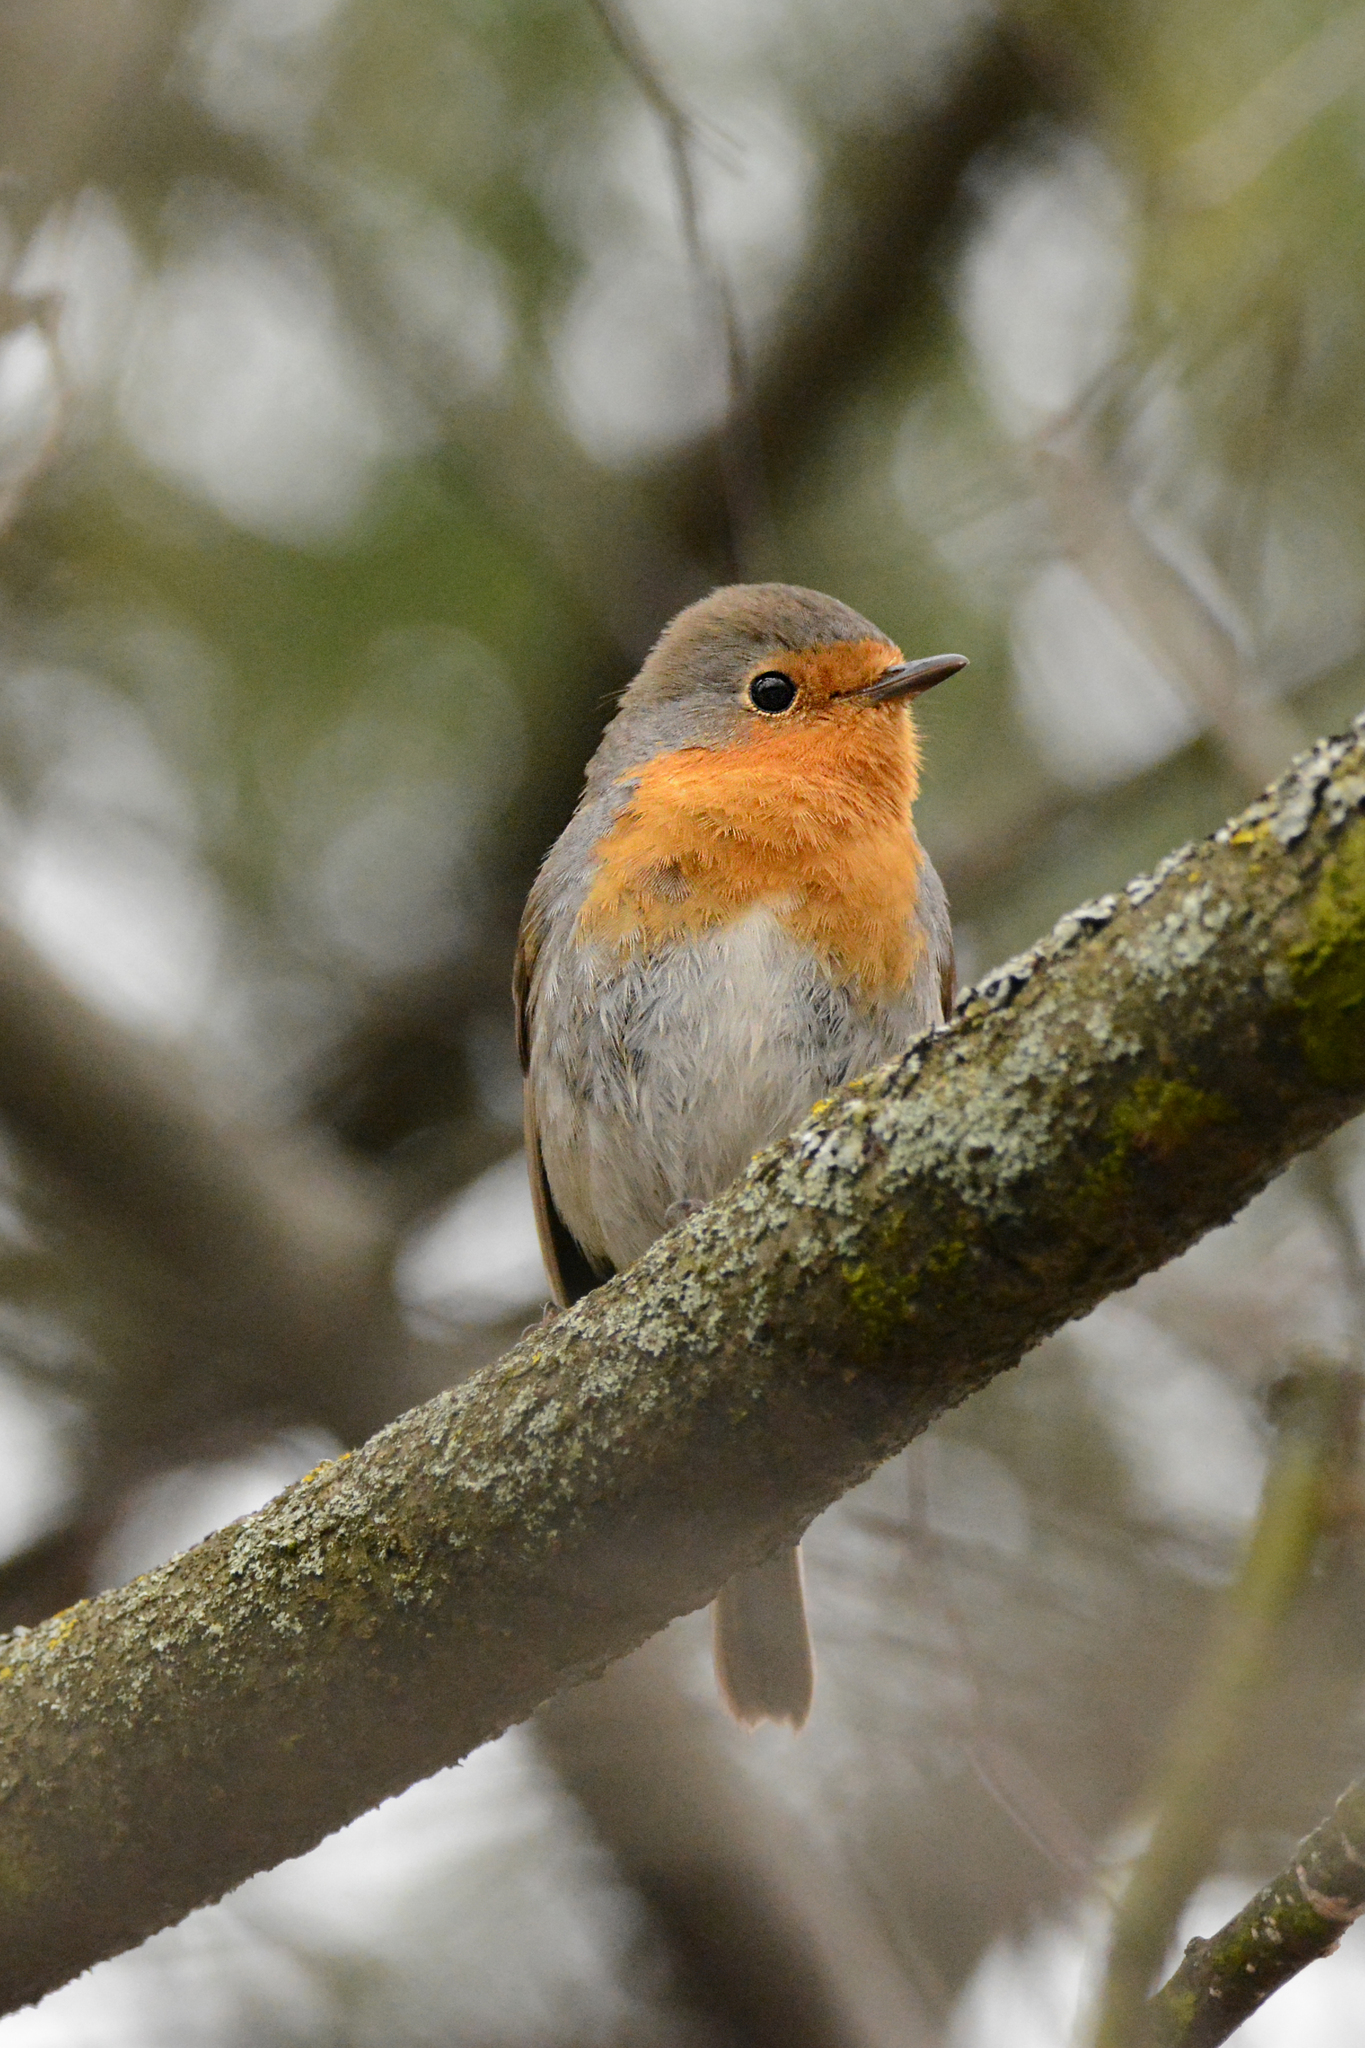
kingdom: Animalia
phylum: Chordata
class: Aves
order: Passeriformes
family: Muscicapidae
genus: Erithacus
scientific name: Erithacus rubecula
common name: European robin
